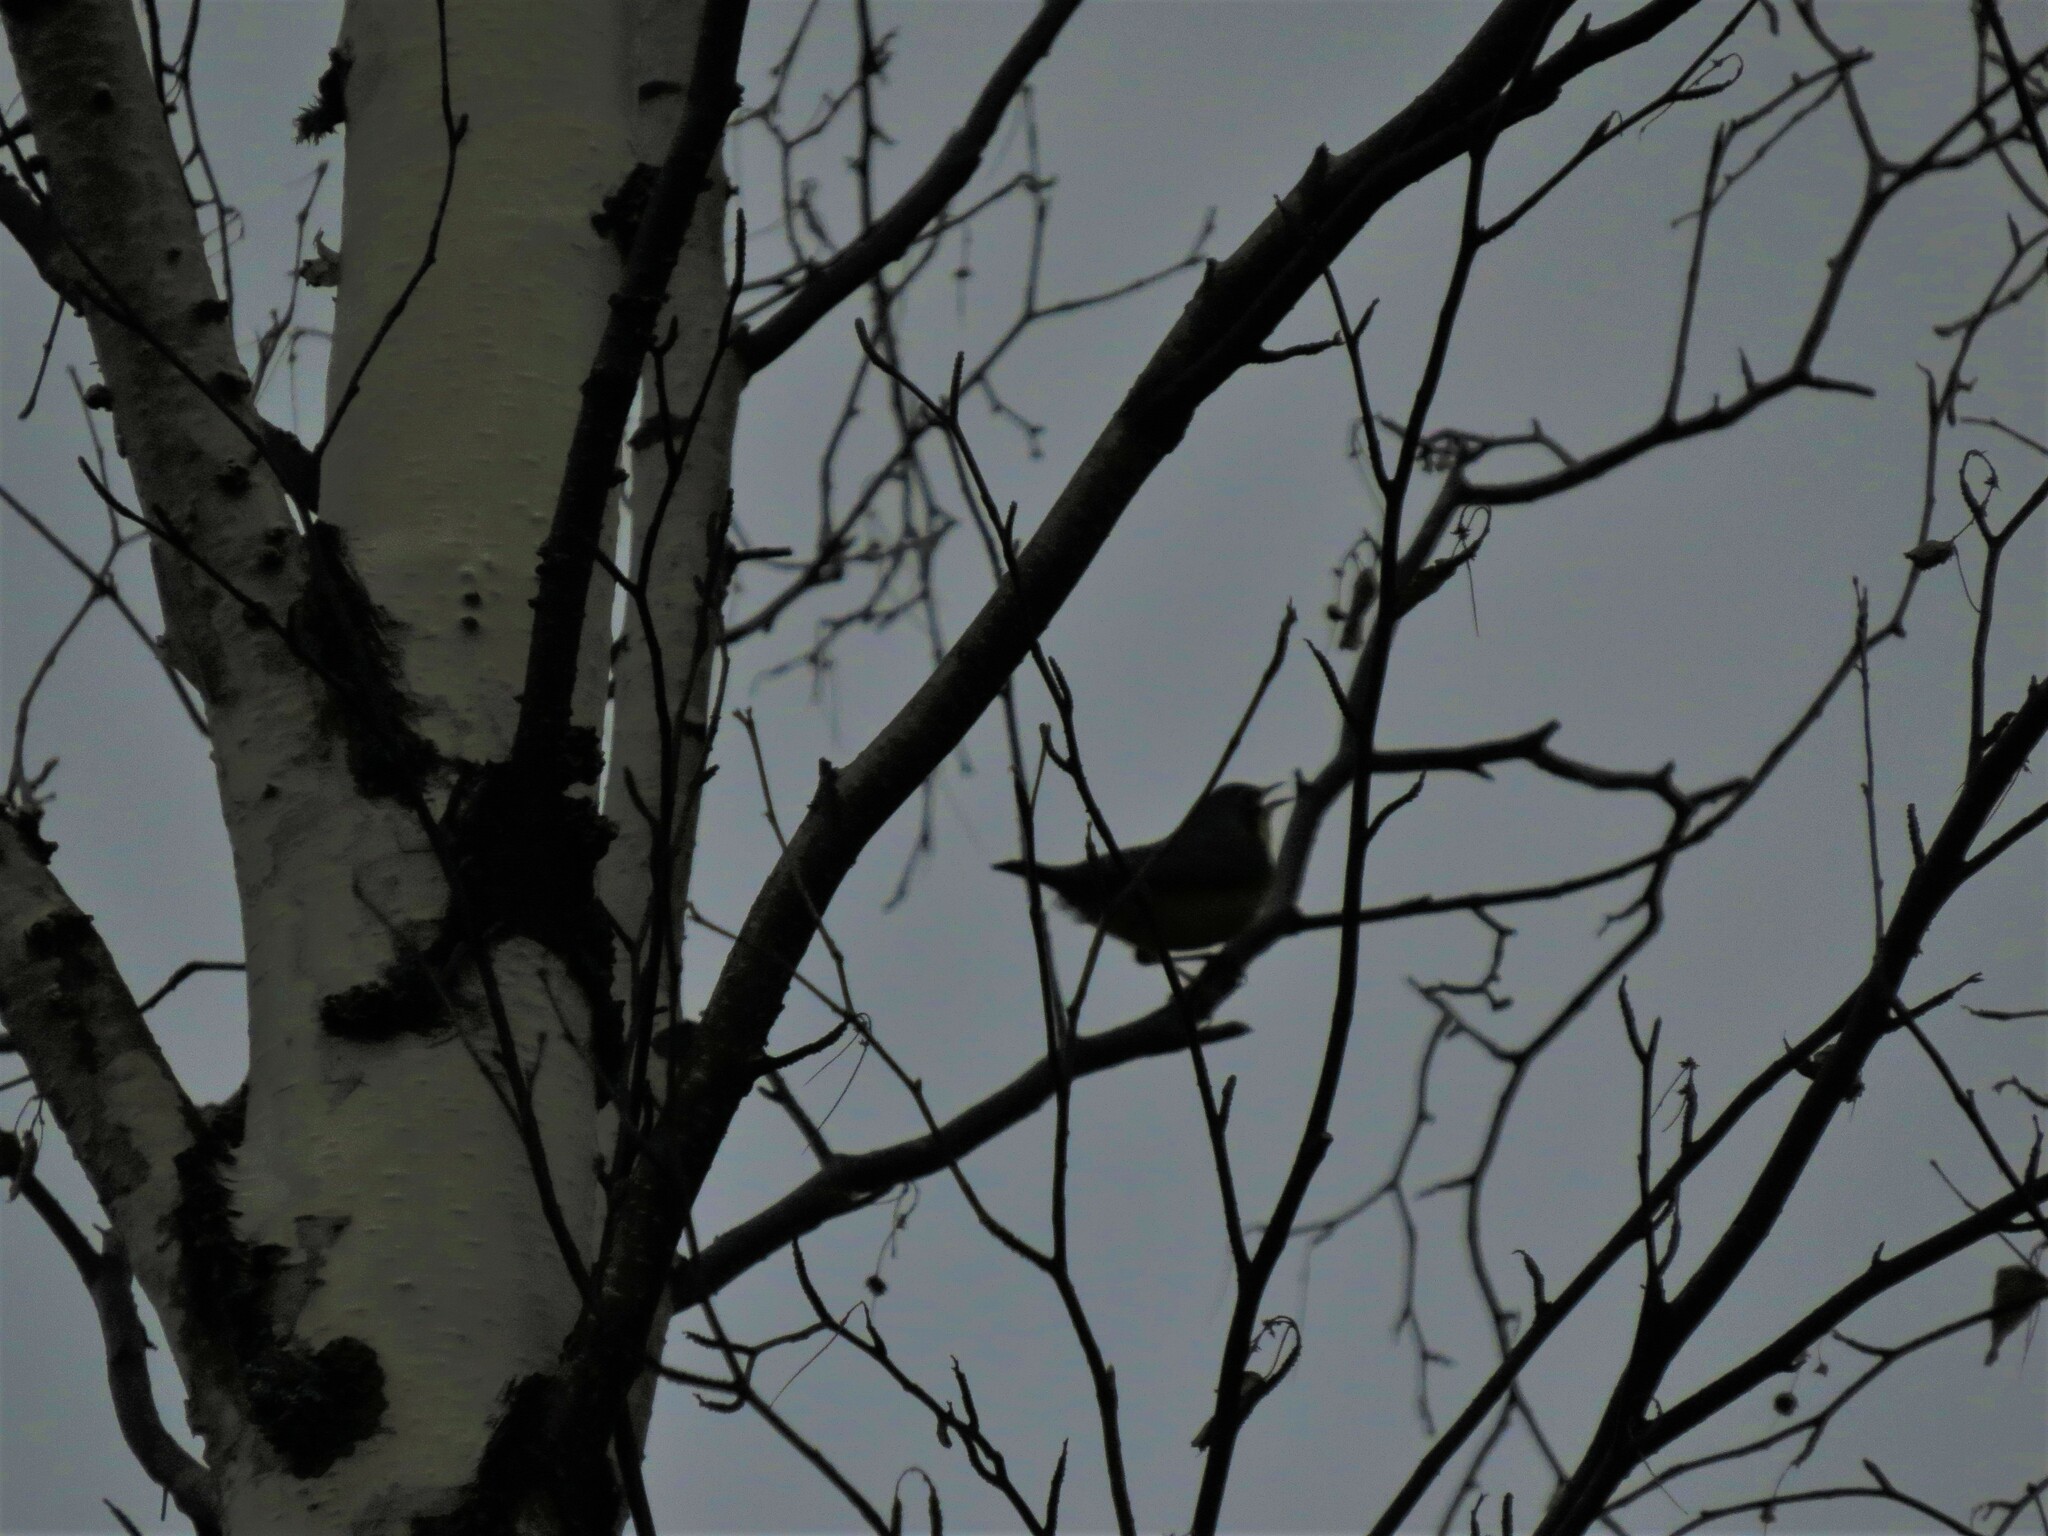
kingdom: Animalia
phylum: Chordata
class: Aves
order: Passeriformes
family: Parulidae
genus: Cardellina
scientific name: Cardellina canadensis
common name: Canada warbler
